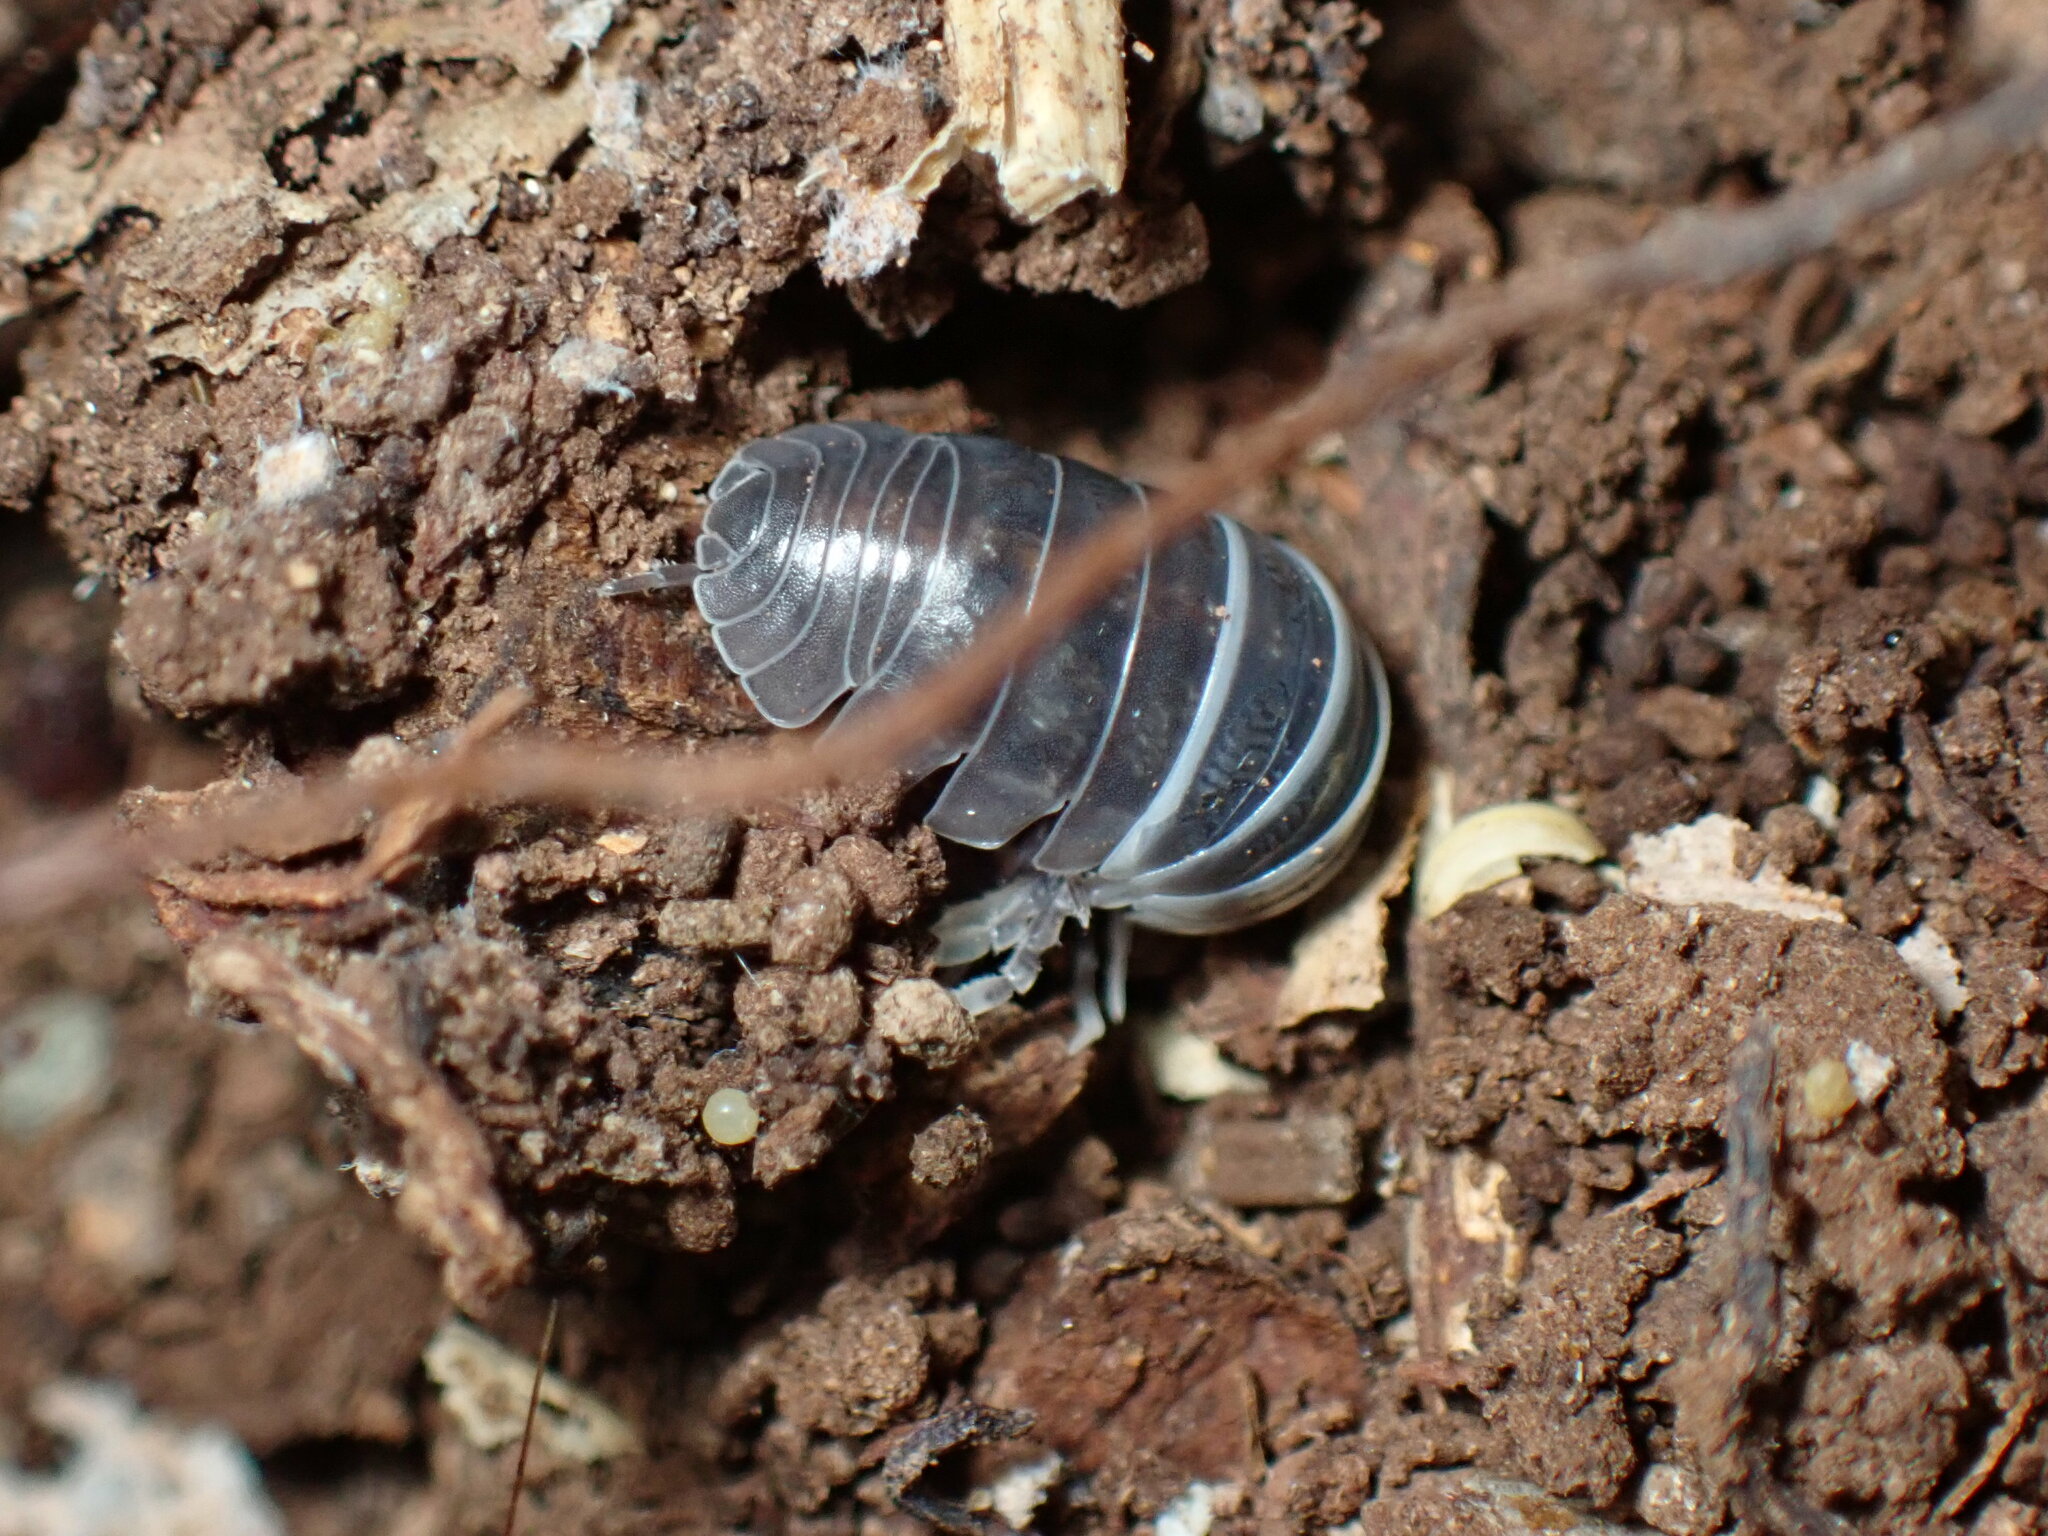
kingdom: Animalia
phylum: Arthropoda
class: Malacostraca
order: Isopoda
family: Armadillidiidae
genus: Armadillidium
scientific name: Armadillidium vulgare
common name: Common pill woodlouse
